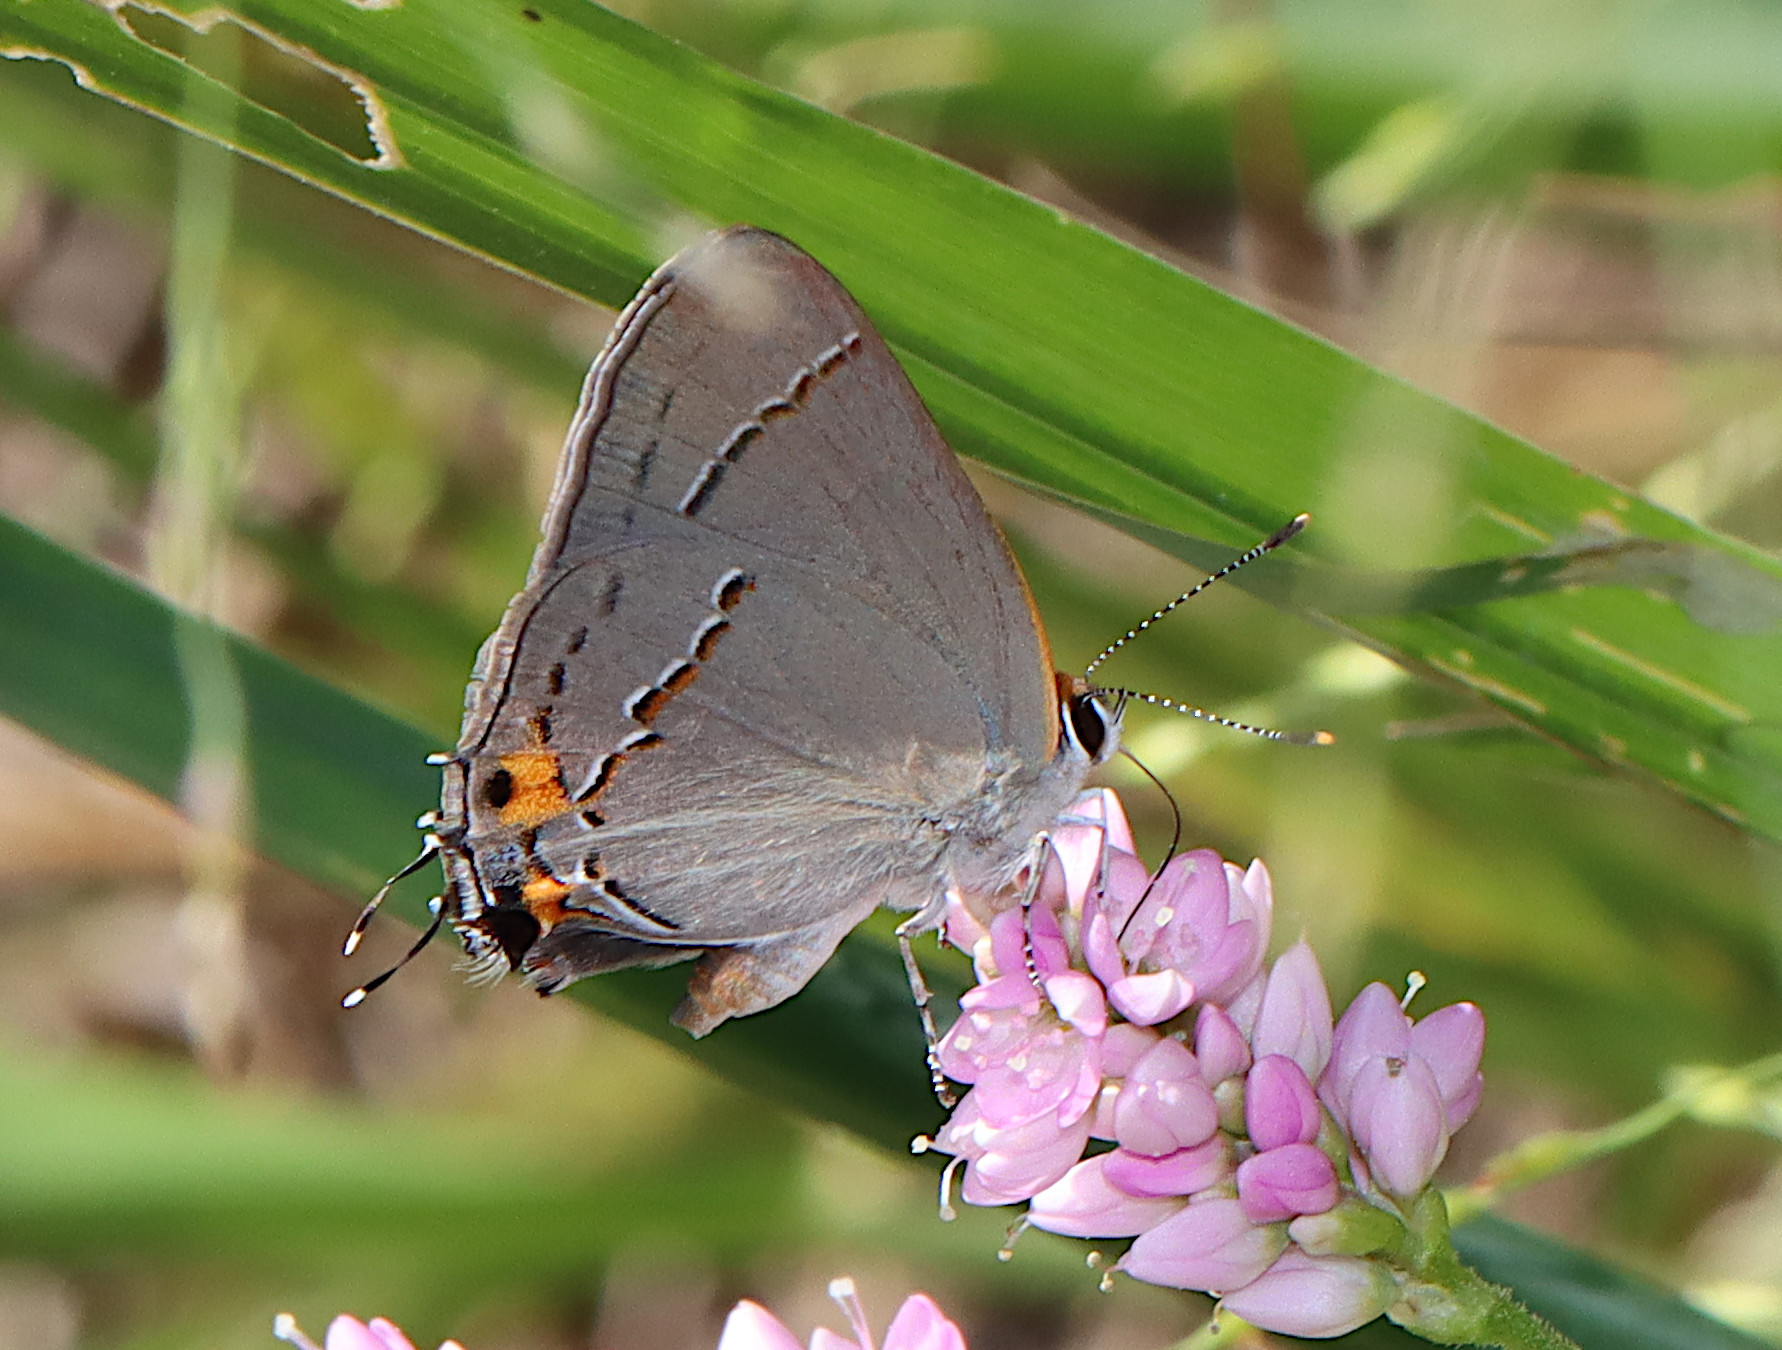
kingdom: Animalia
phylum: Arthropoda
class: Insecta
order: Lepidoptera
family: Lycaenidae
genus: Strymon
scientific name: Strymon melinus
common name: Gray hairstreak
